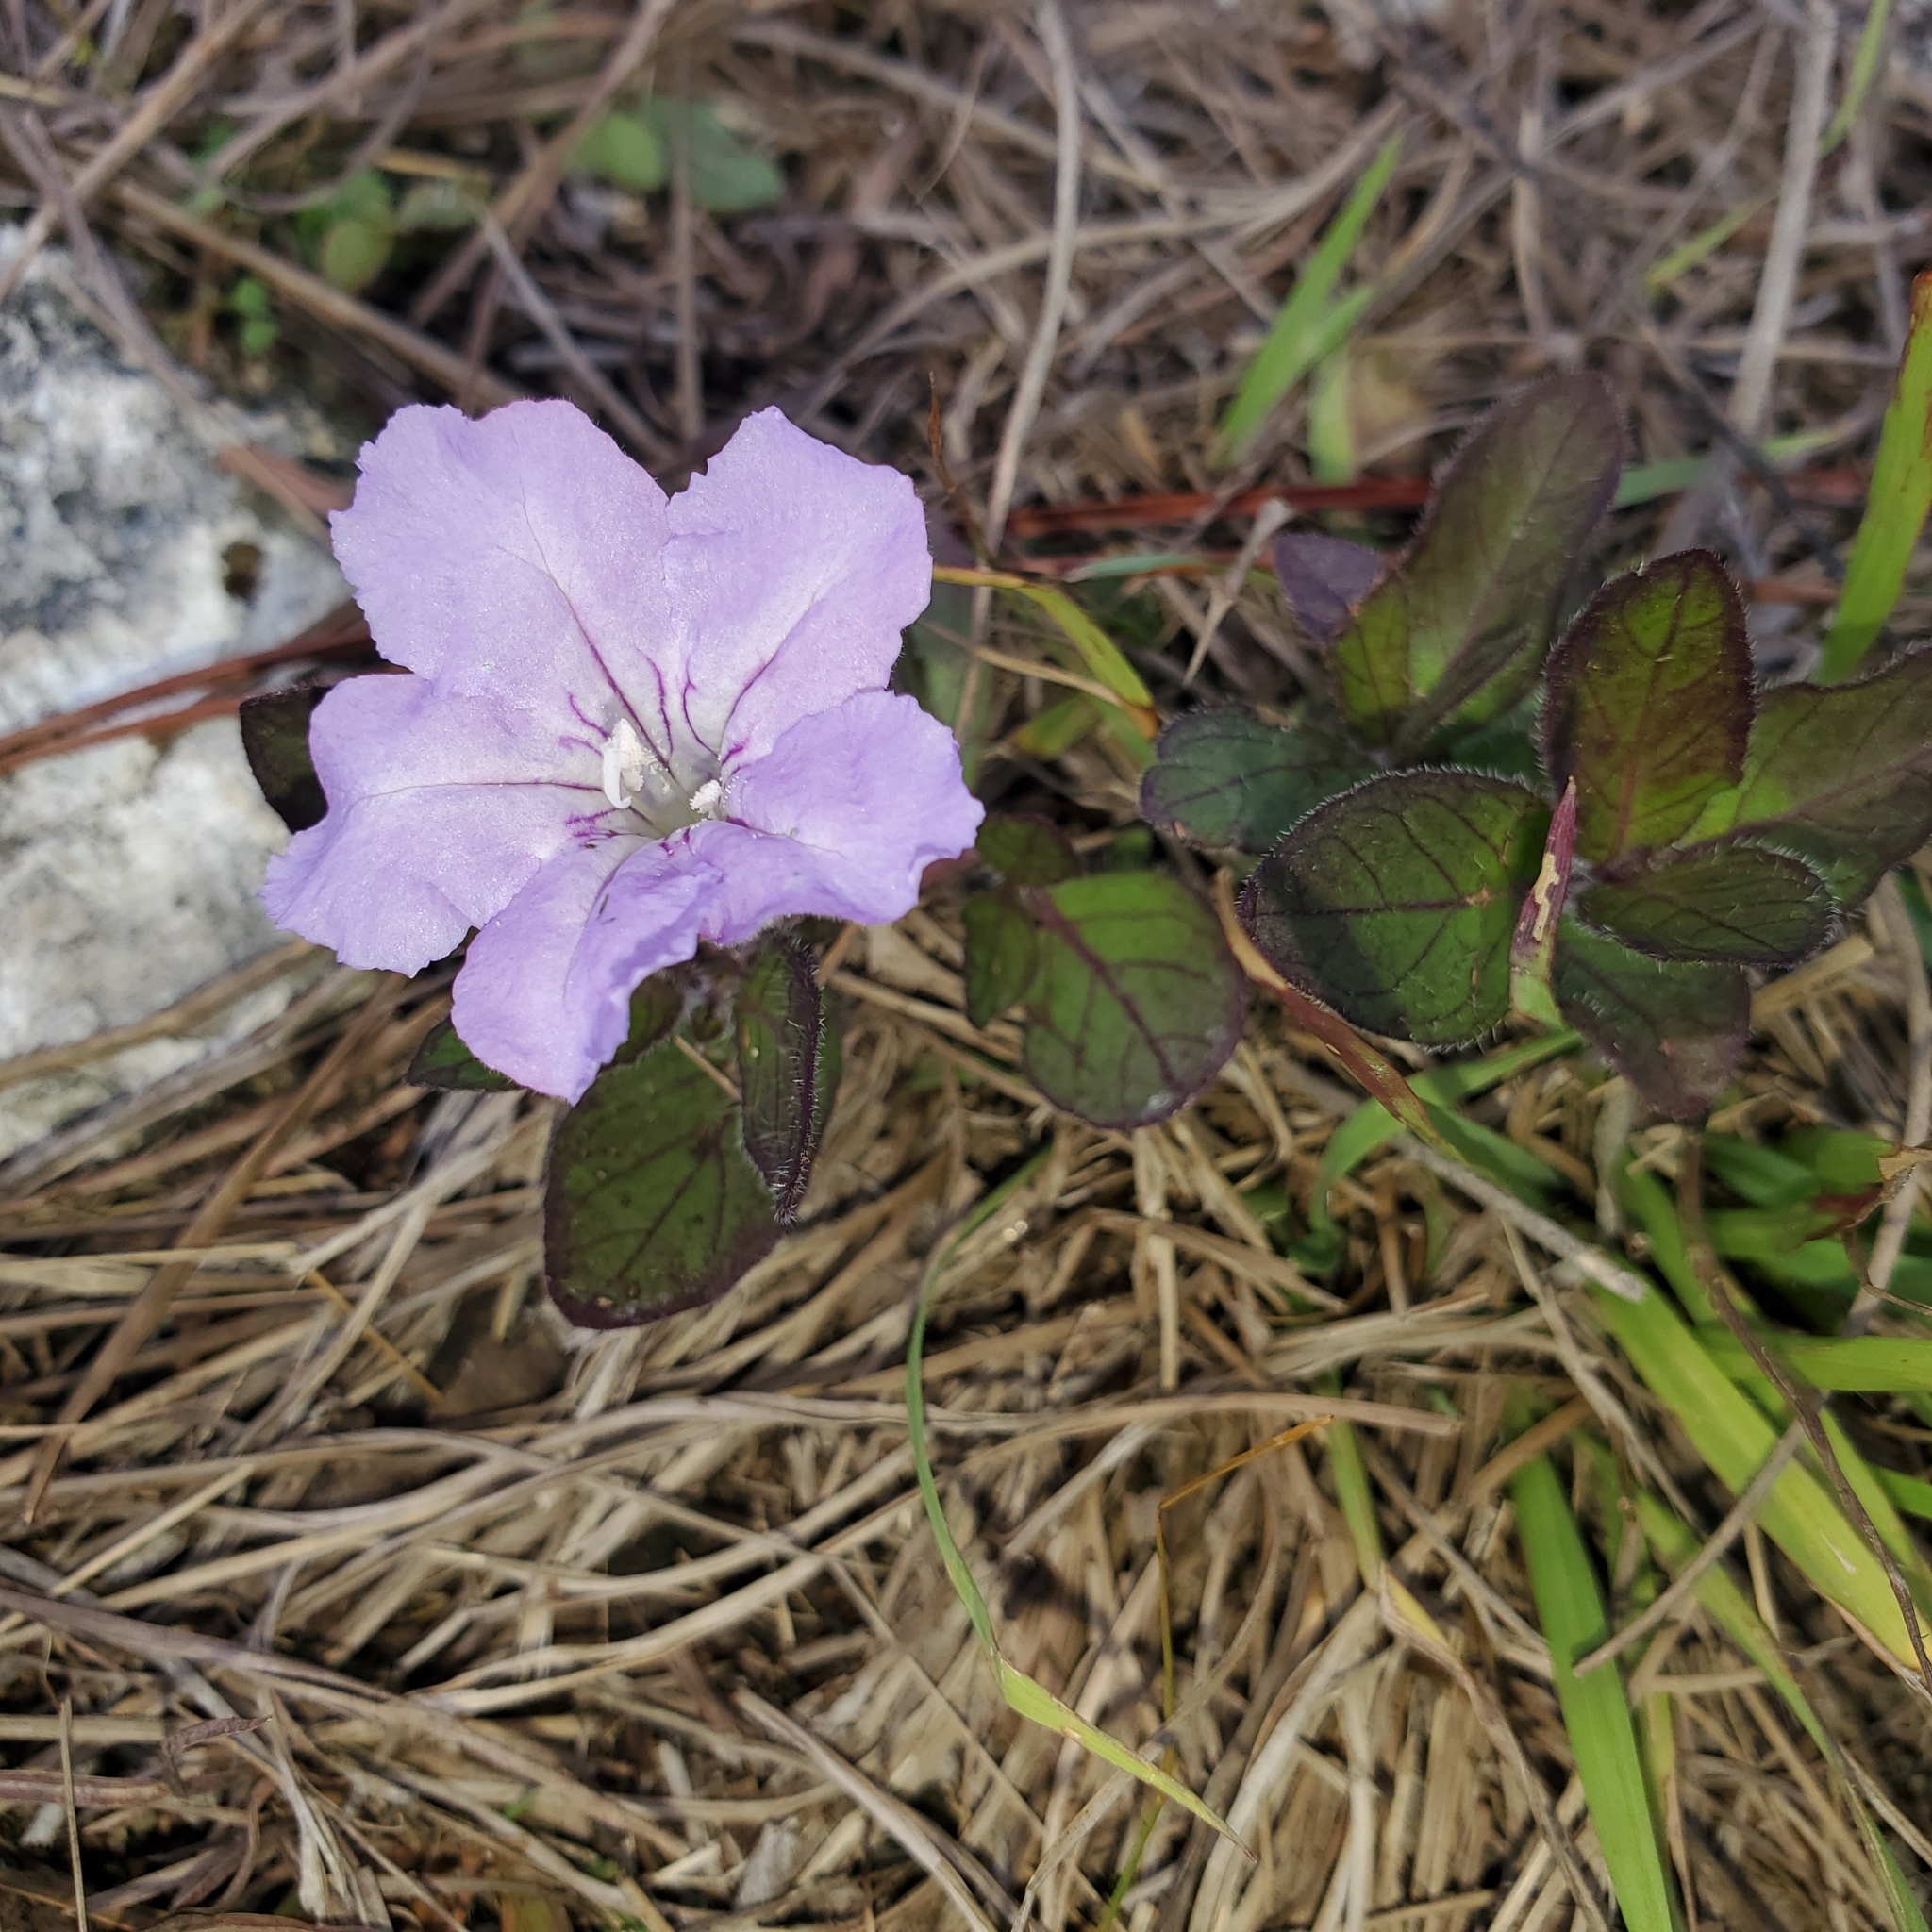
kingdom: Plantae
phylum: Tracheophyta
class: Magnoliopsida
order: Lamiales
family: Acanthaceae
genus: Ruellia
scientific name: Ruellia caroliniensis
